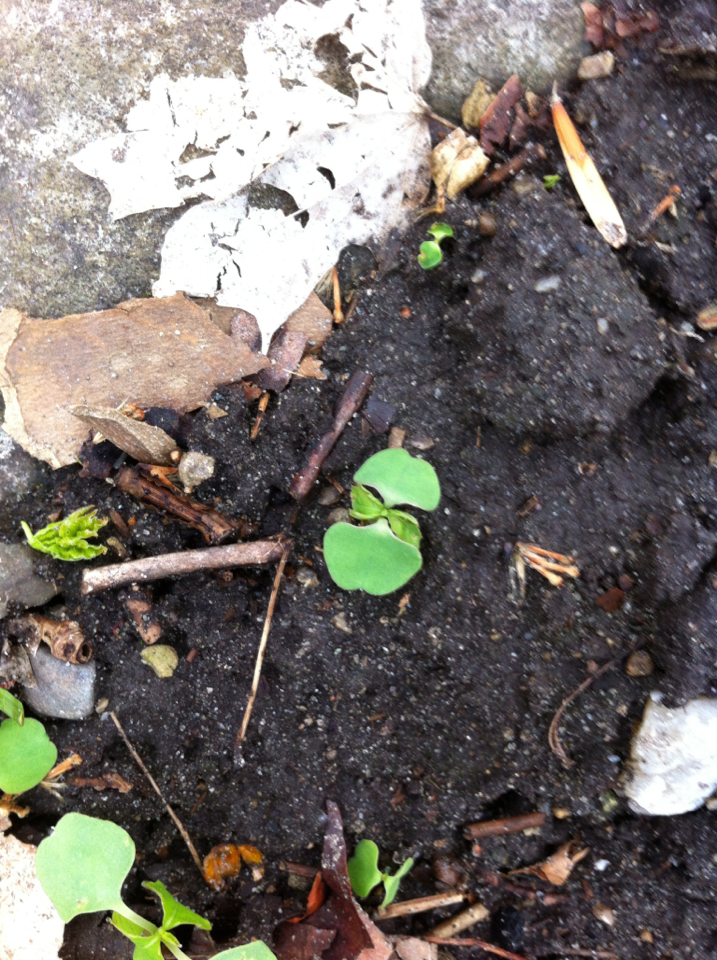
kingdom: Plantae
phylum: Tracheophyta
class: Magnoliopsida
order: Ericales
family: Balsaminaceae
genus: Impatiens
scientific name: Impatiens
